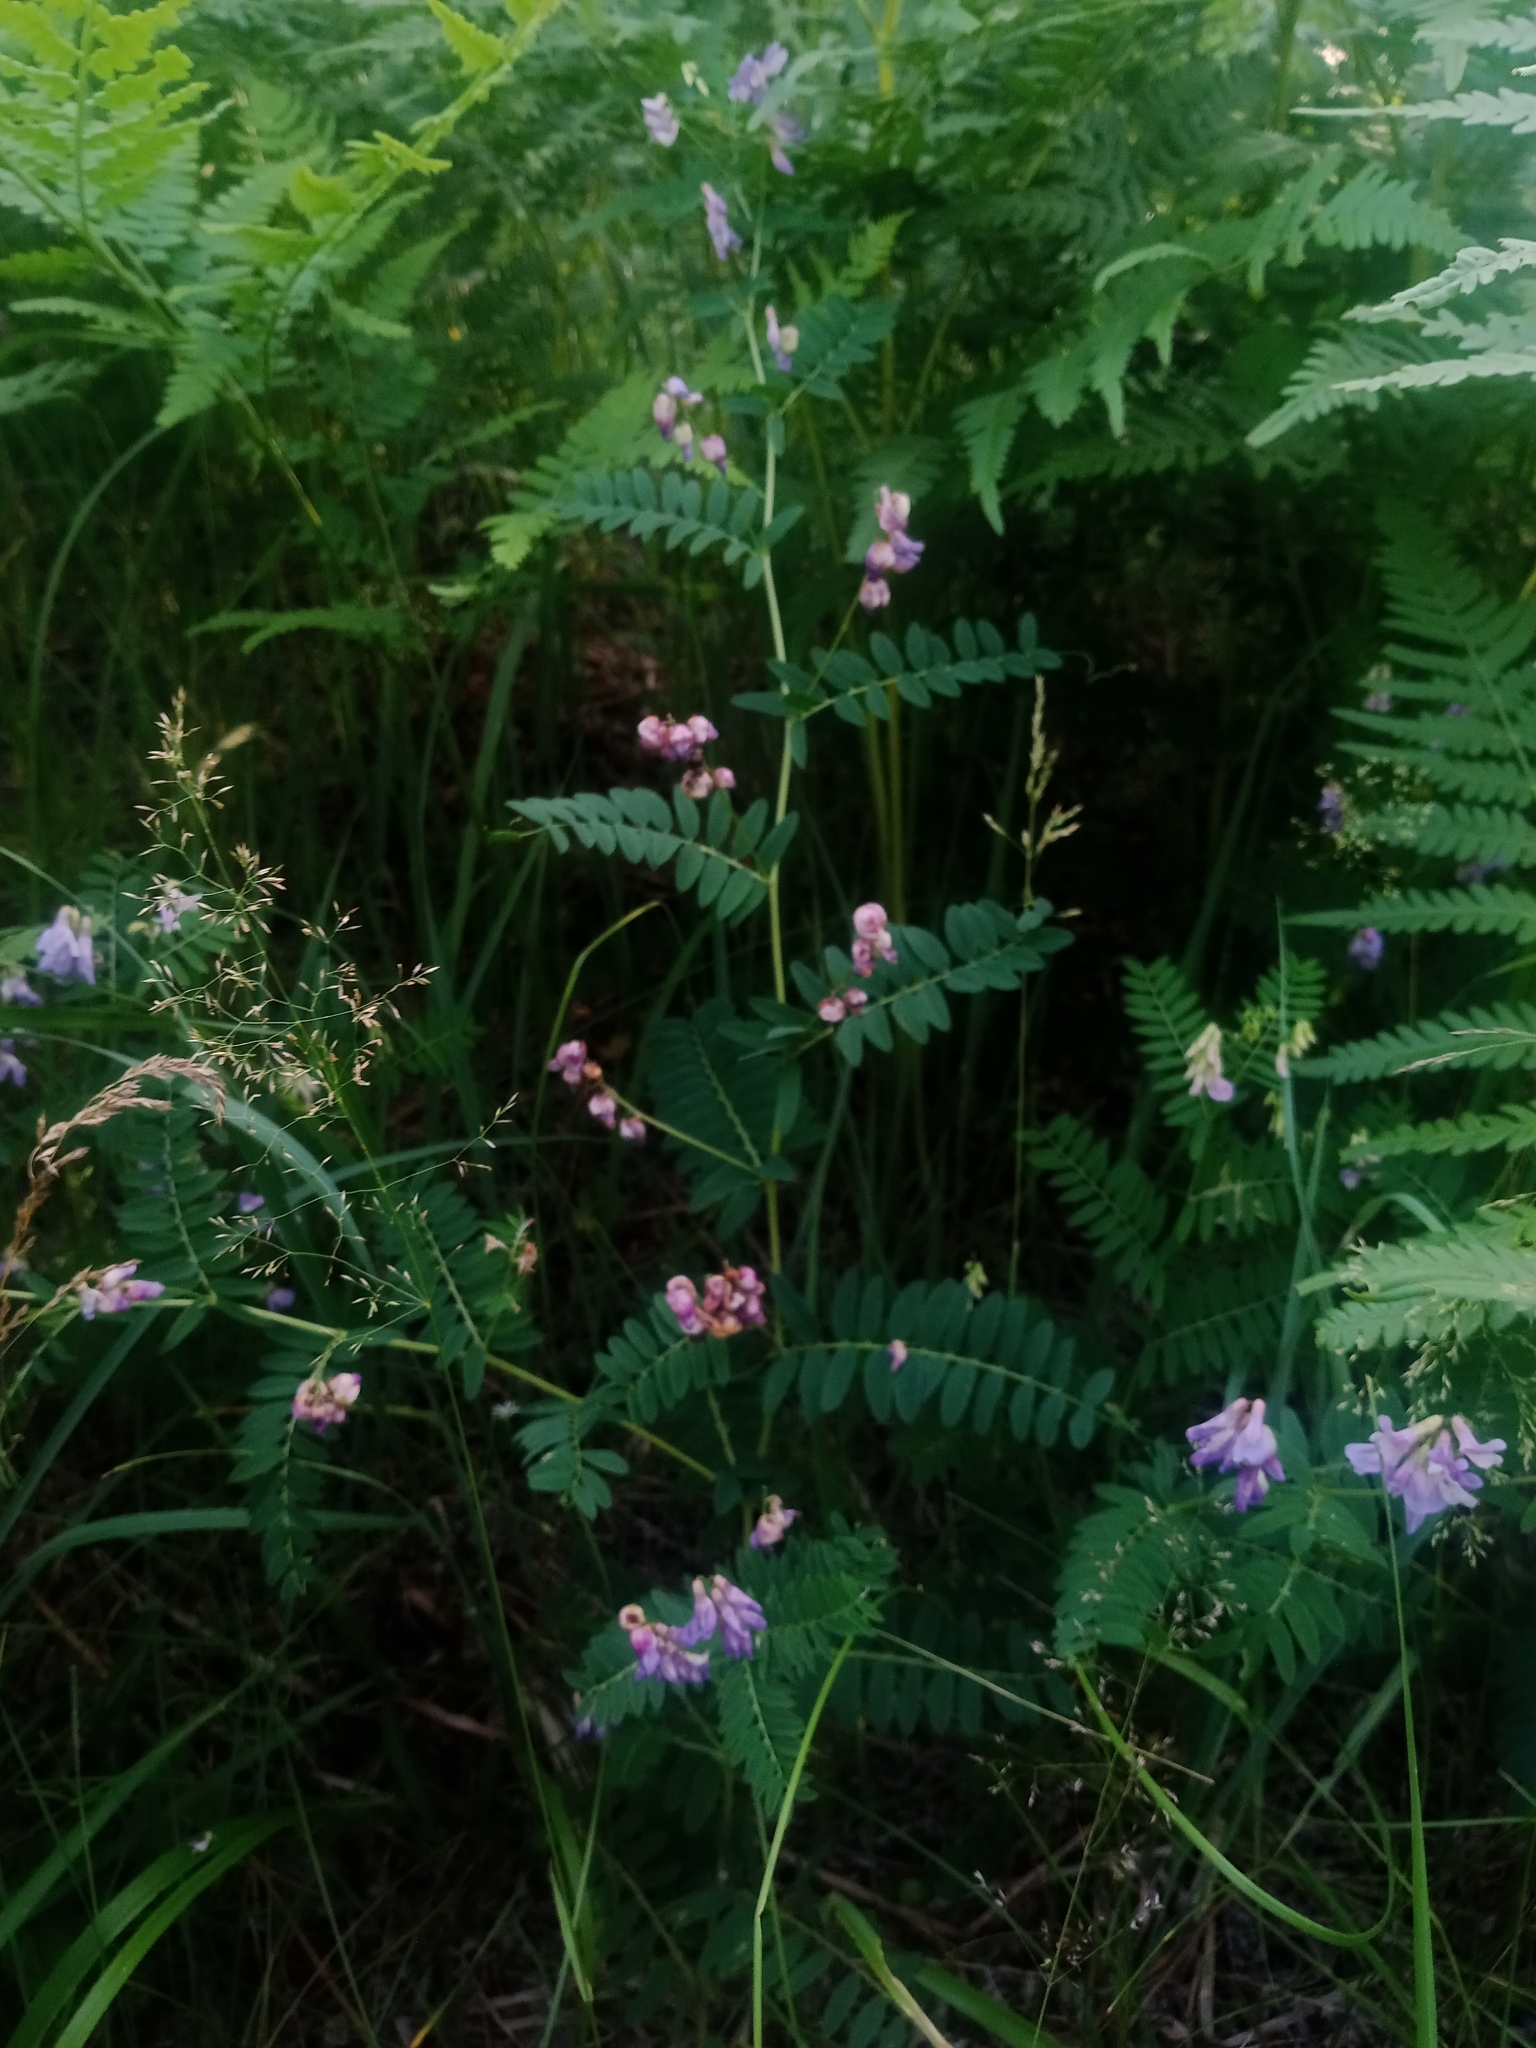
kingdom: Plantae
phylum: Tracheophyta
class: Magnoliopsida
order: Fabales
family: Fabaceae
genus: Vicia
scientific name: Vicia cassubica
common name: Danzig vetch
